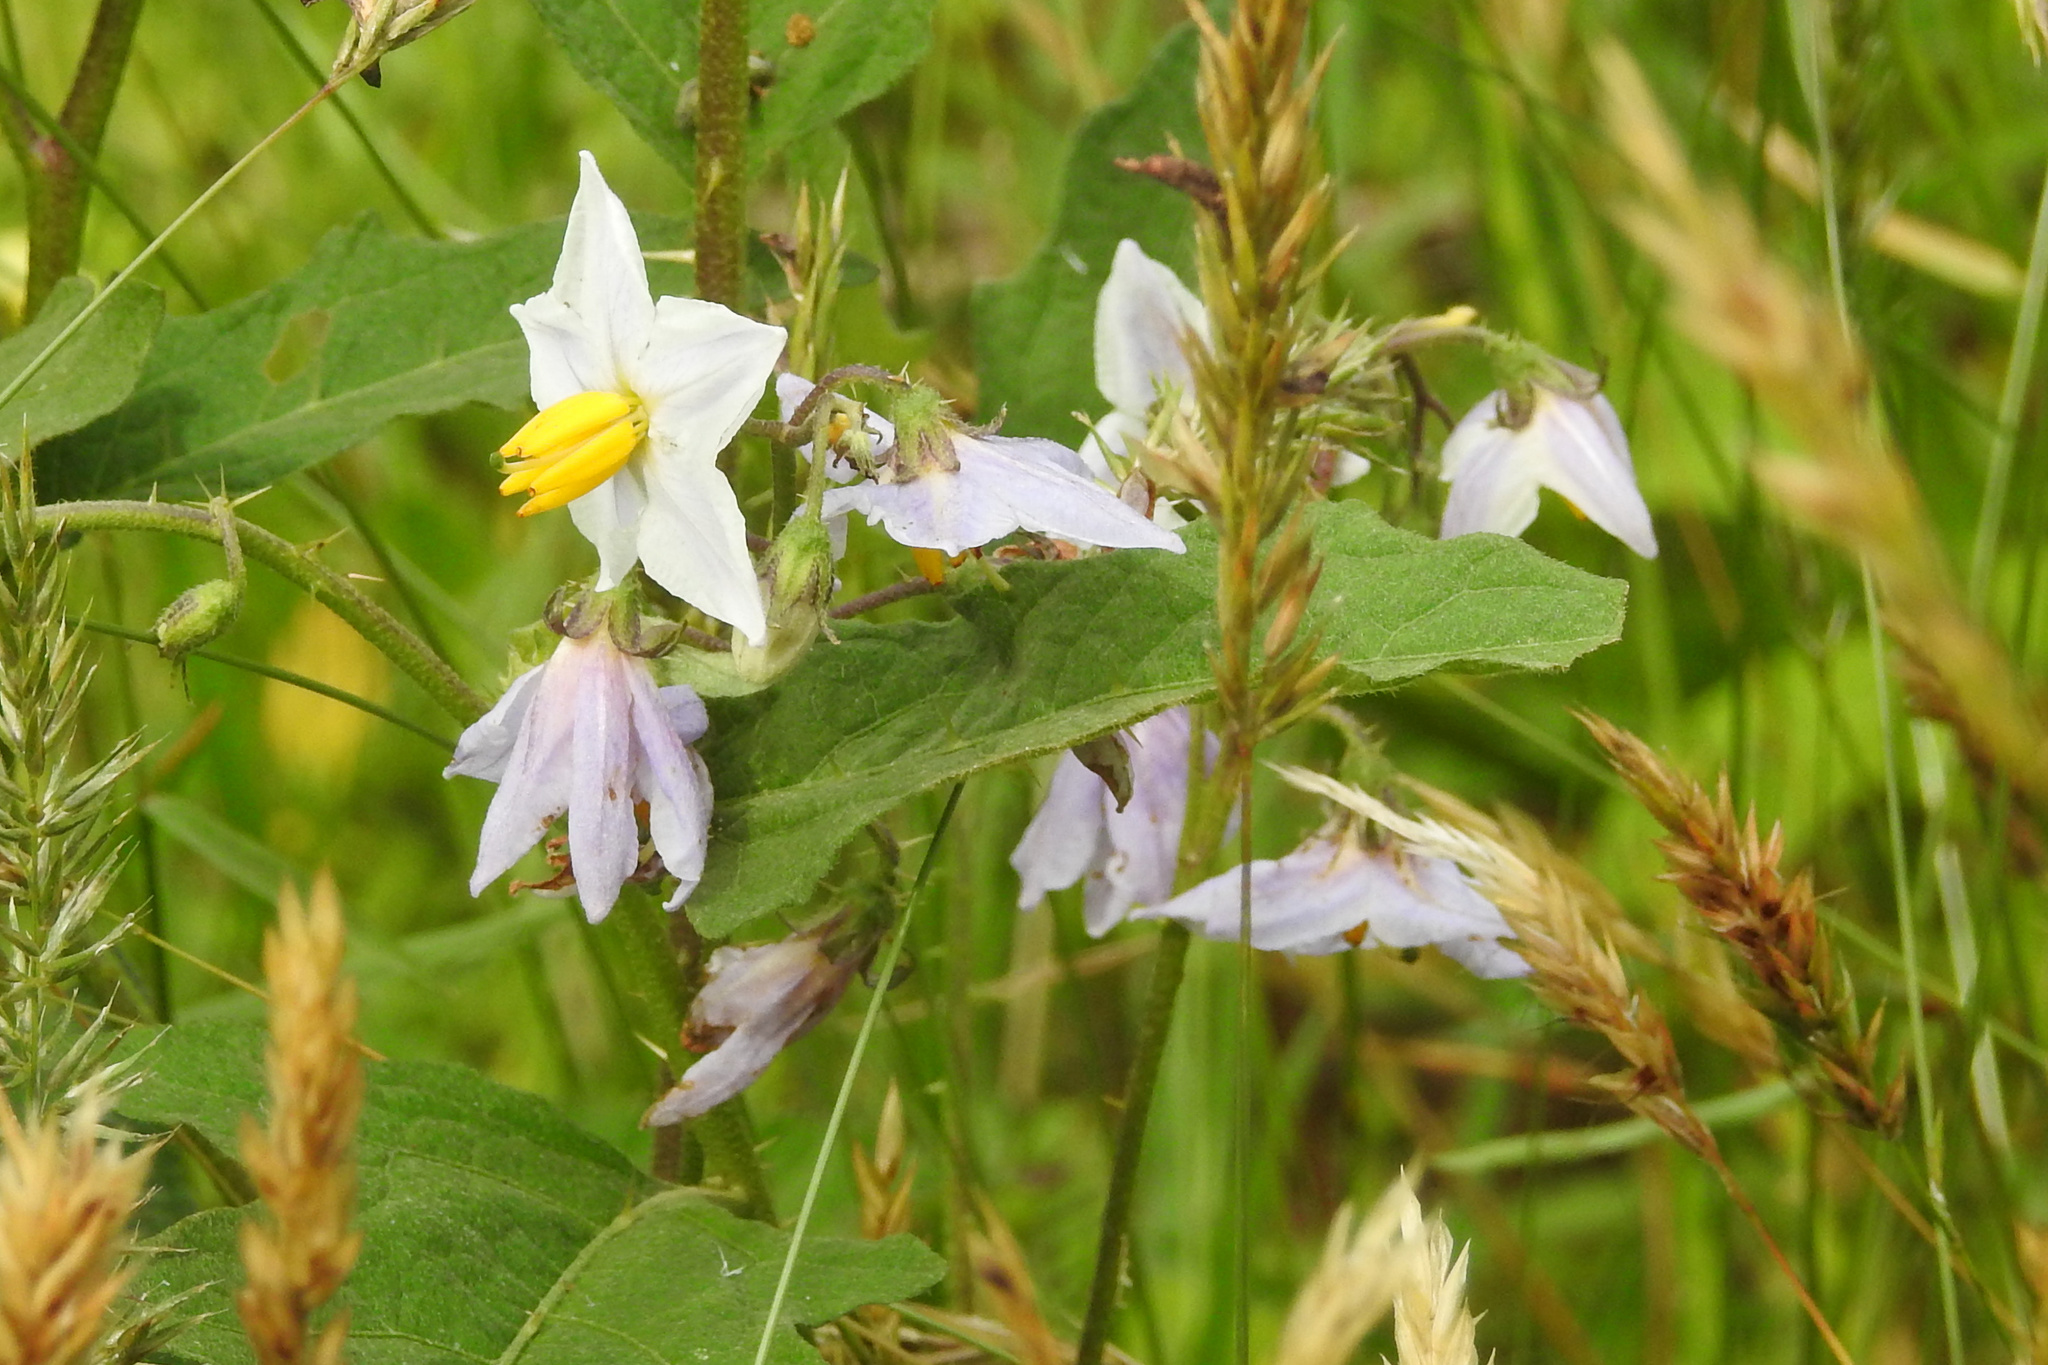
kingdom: Plantae
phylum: Tracheophyta
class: Magnoliopsida
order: Solanales
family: Solanaceae
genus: Solanum
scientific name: Solanum carolinense
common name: Horse-nettle
